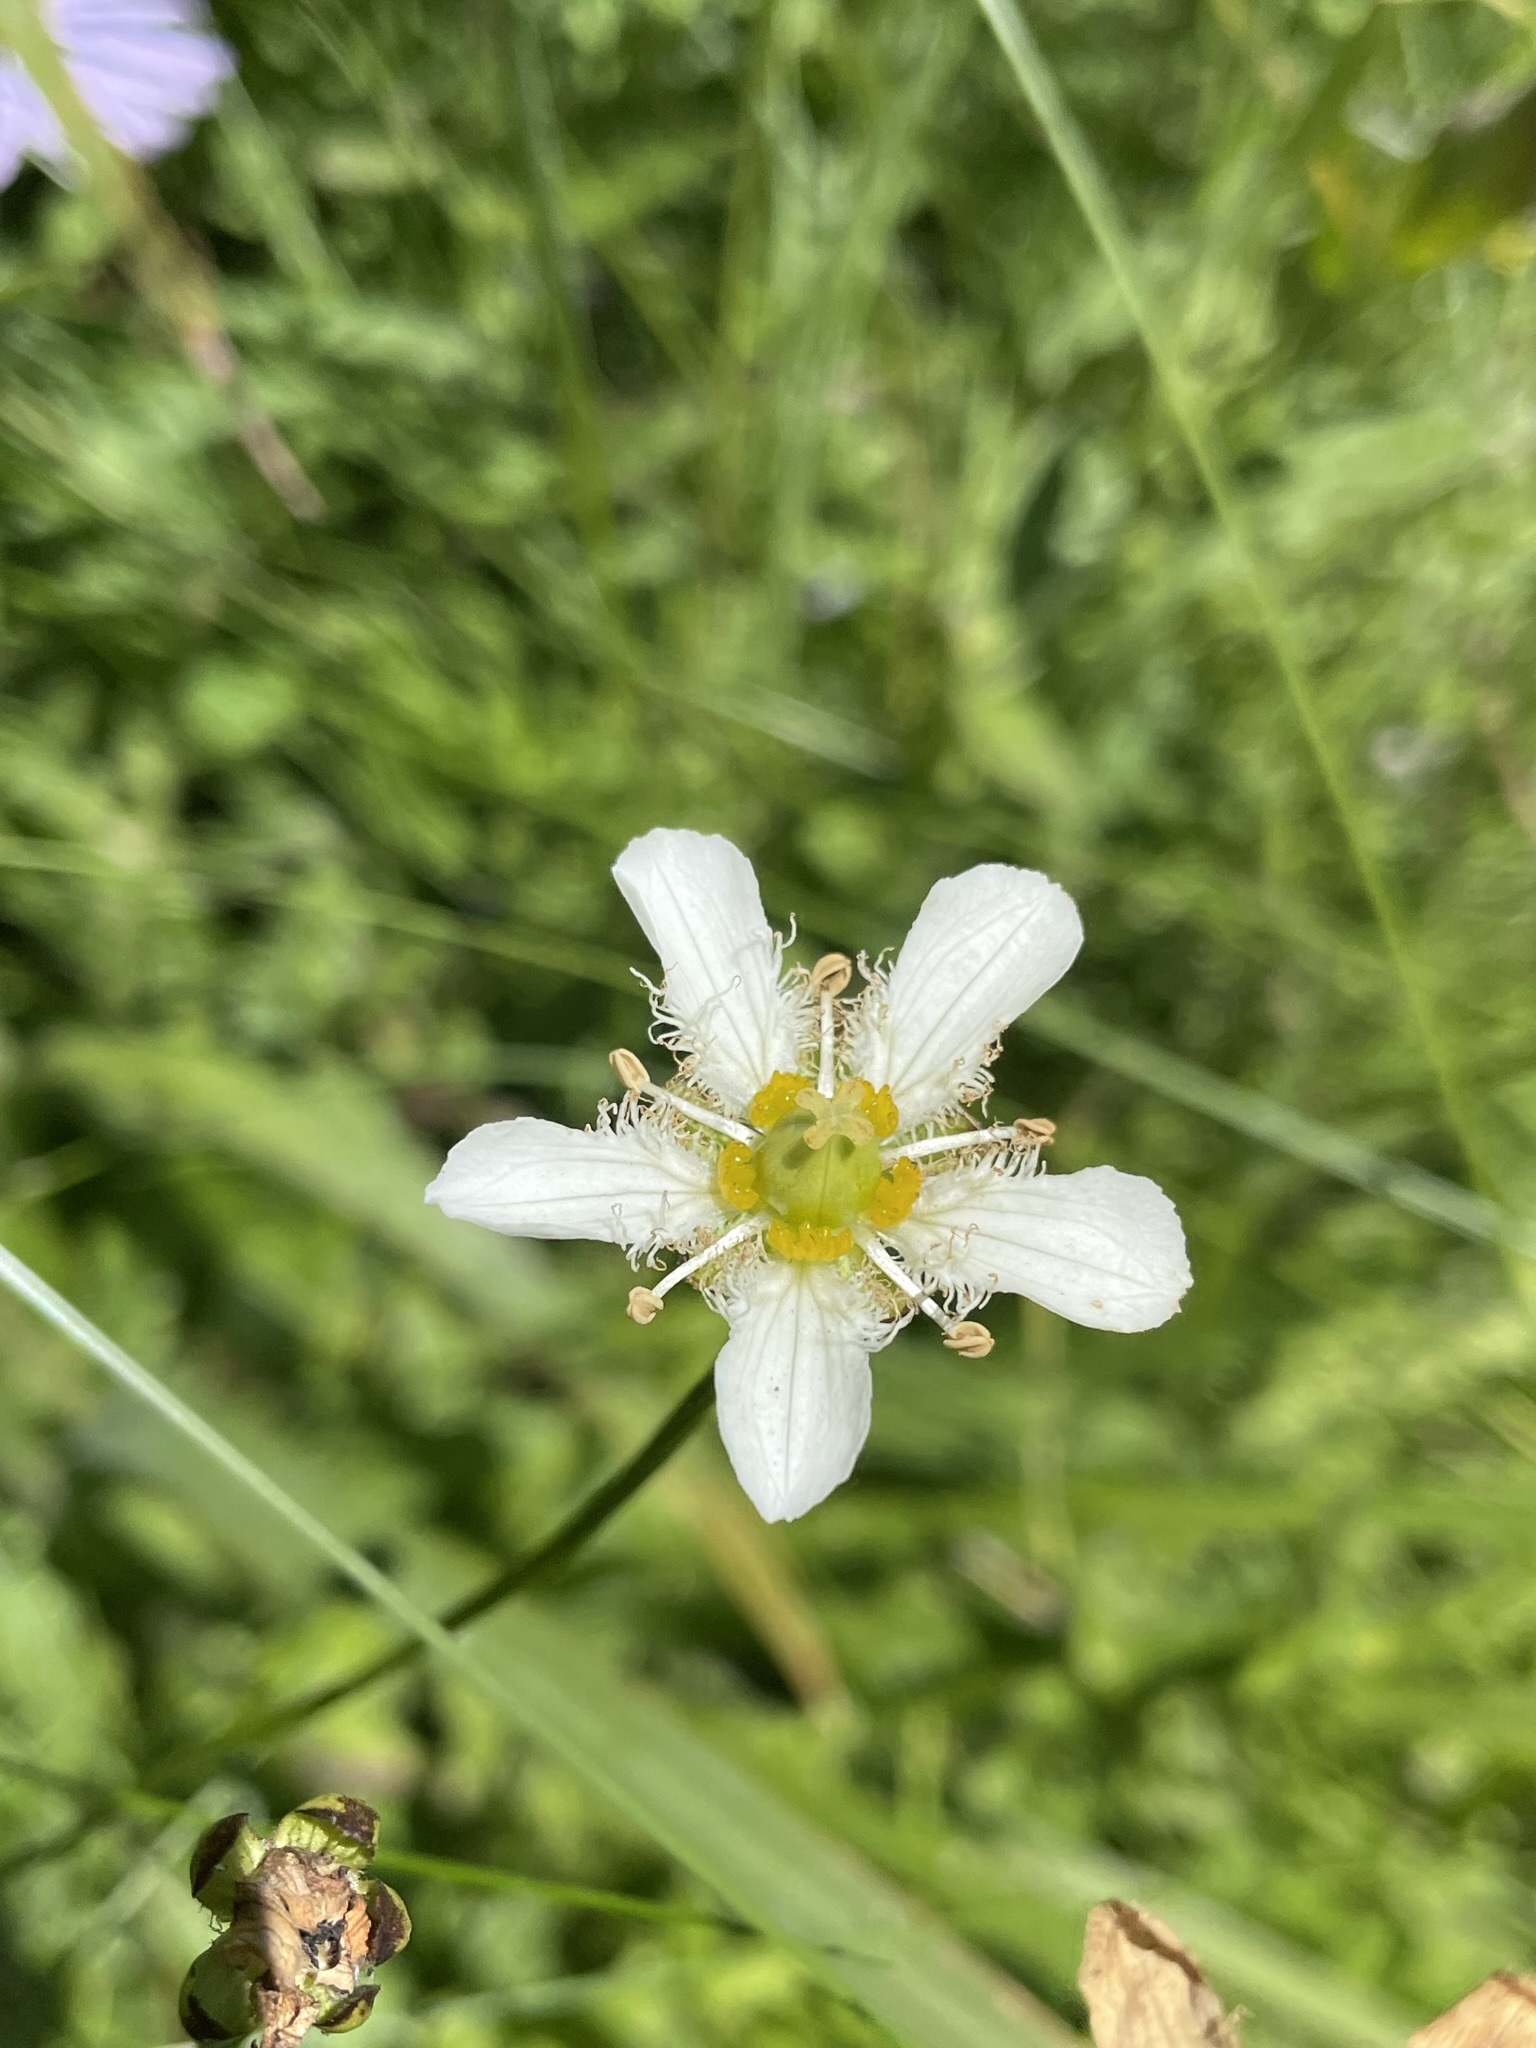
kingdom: Plantae
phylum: Tracheophyta
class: Magnoliopsida
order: Celastrales
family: Parnassiaceae
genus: Parnassia
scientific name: Parnassia fimbriata
